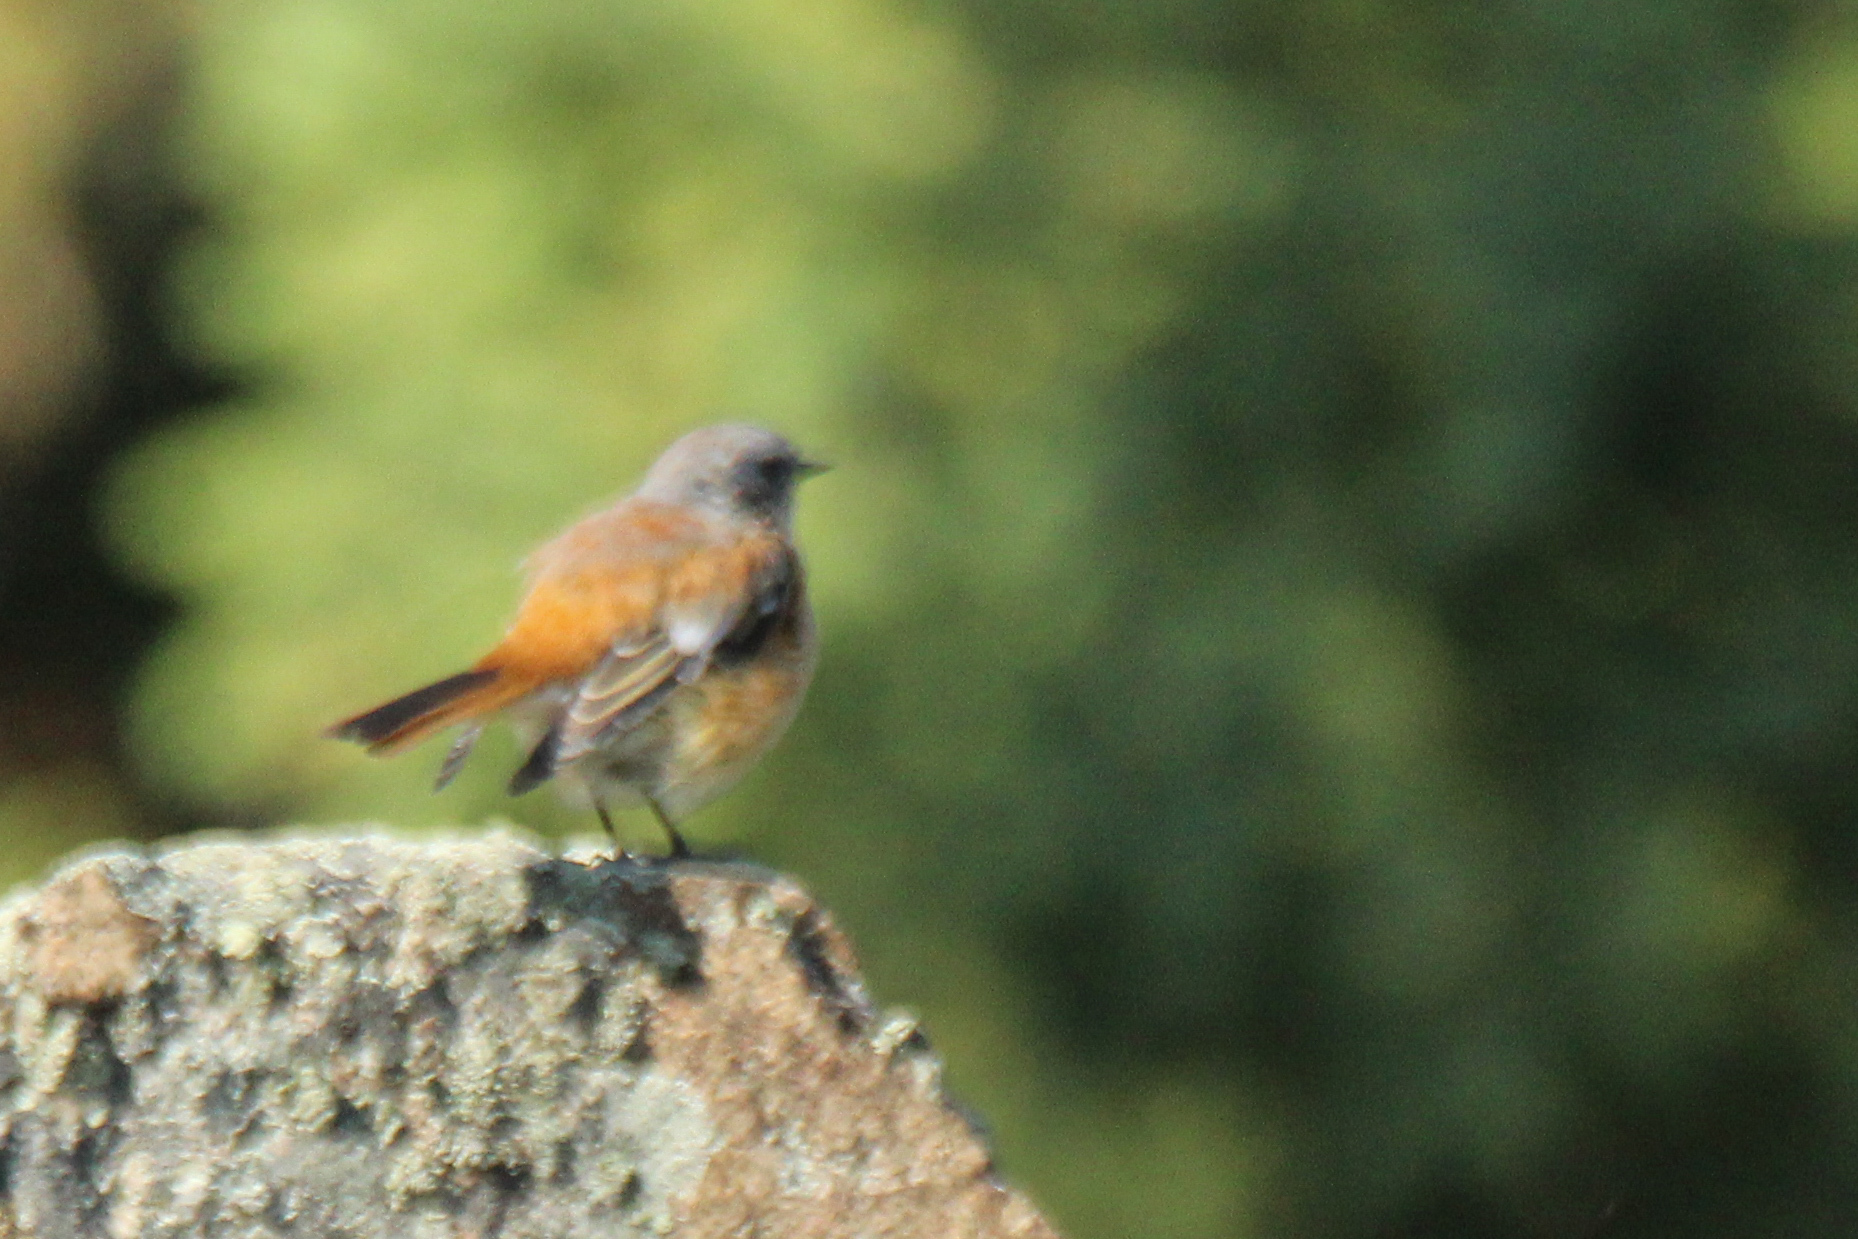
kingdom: Animalia
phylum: Chordata
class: Aves
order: Passeriformes
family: Muscicapidae
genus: Phoenicurus
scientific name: Phoenicurus erythronotus
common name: Eversmann's redstart
